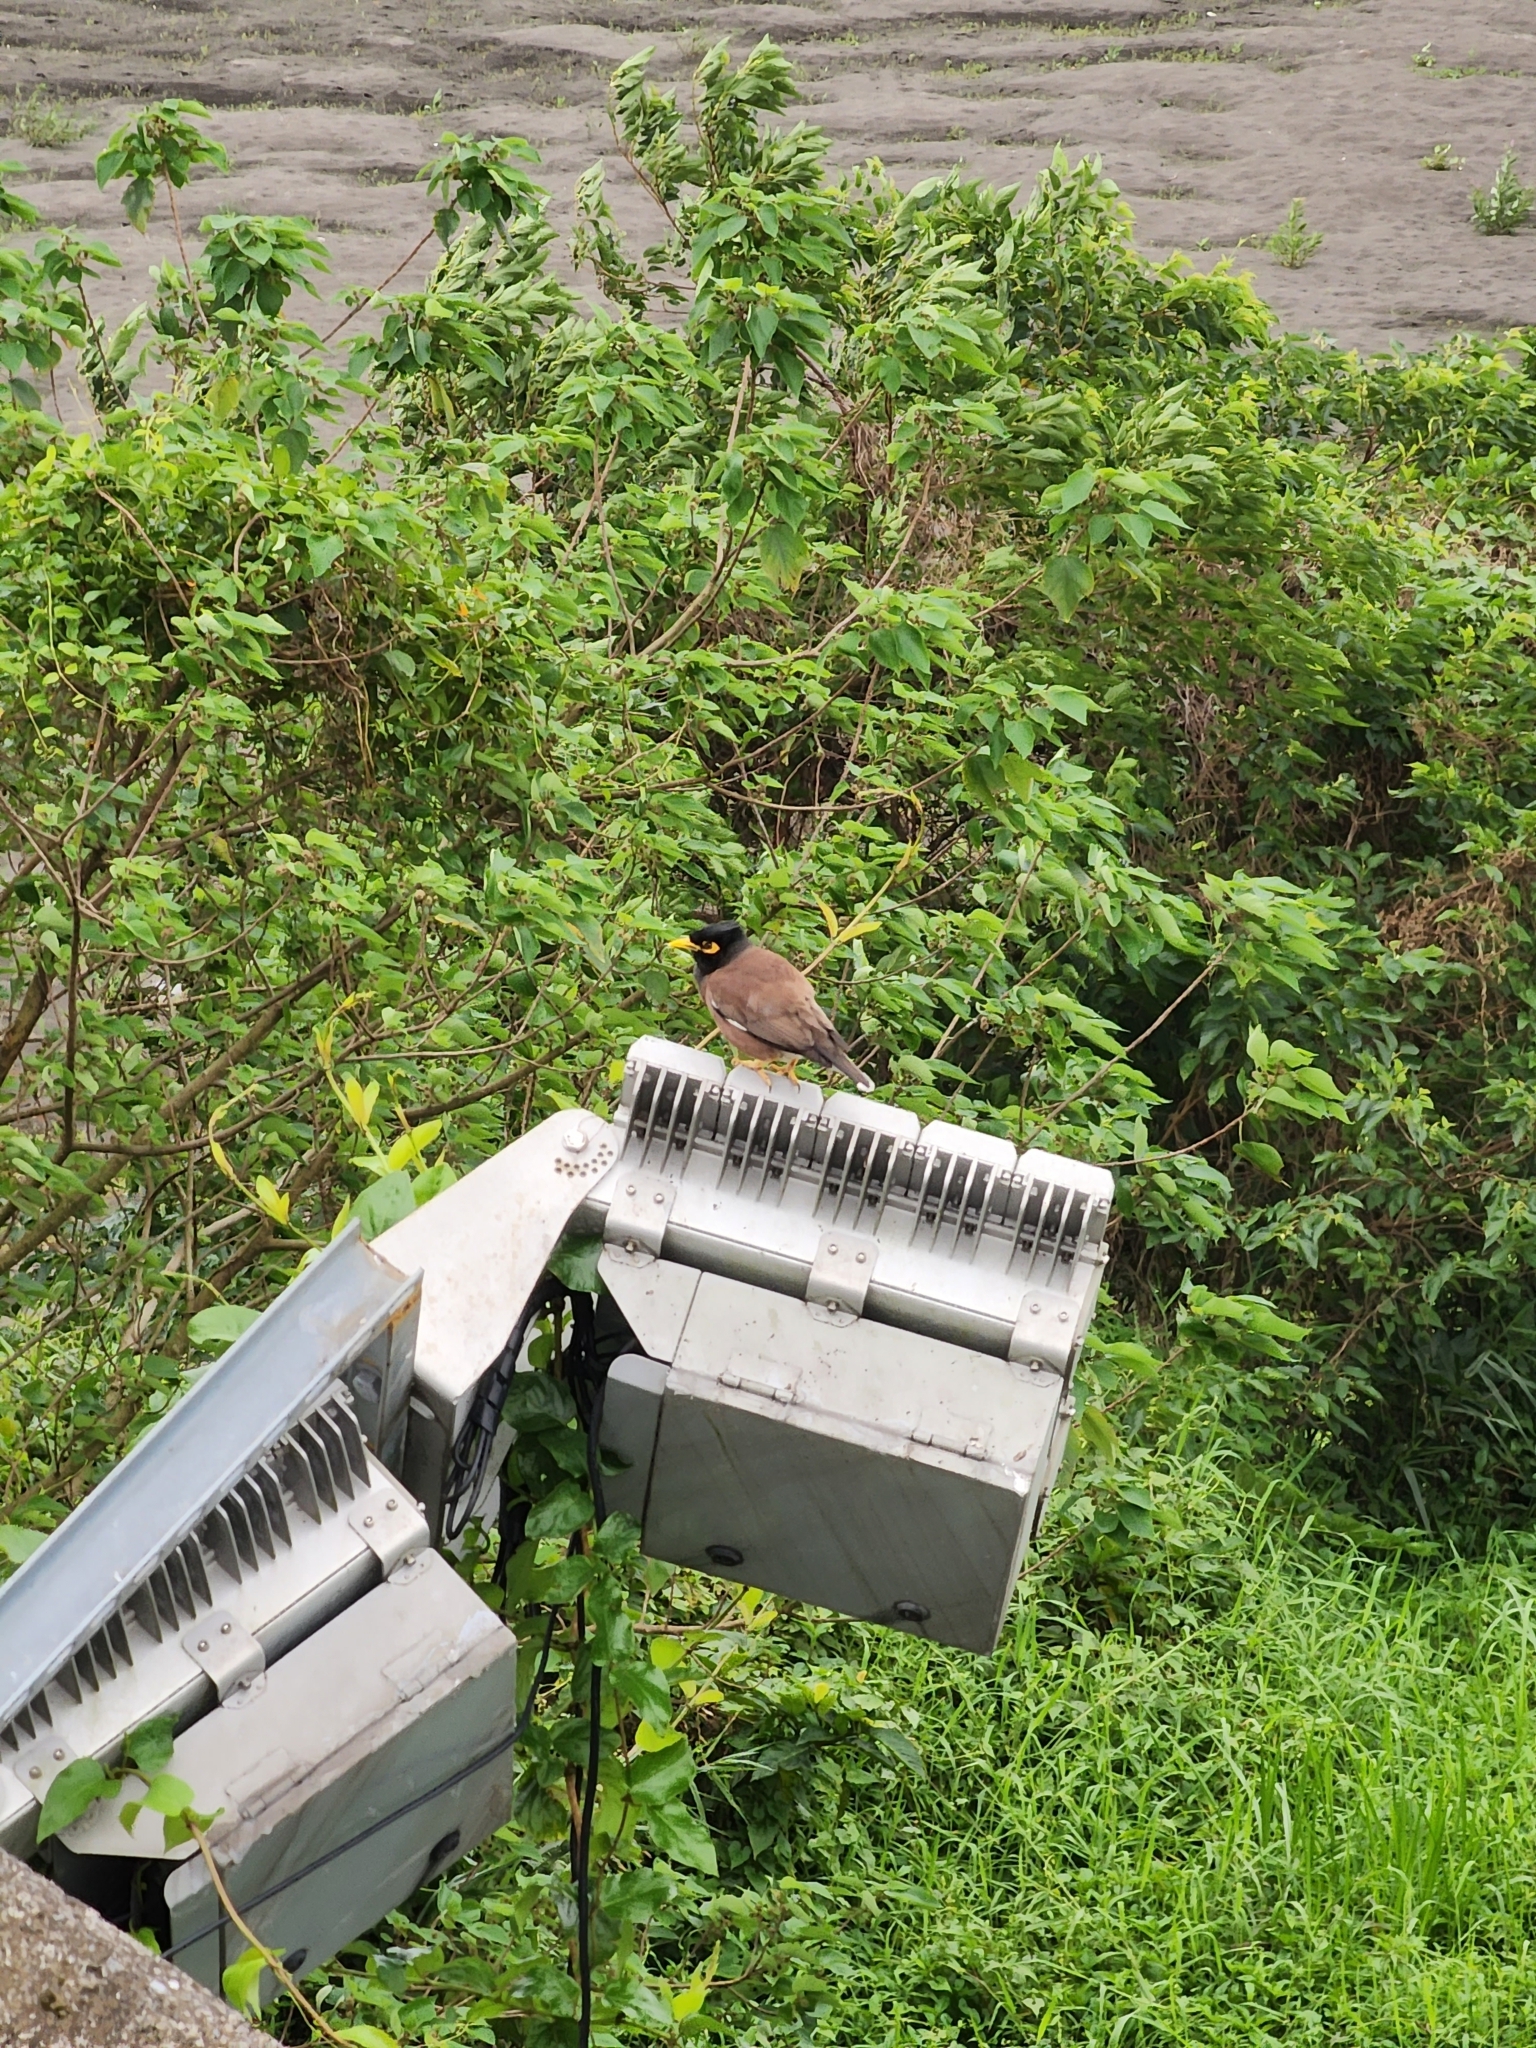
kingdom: Animalia
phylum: Chordata
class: Aves
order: Passeriformes
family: Sturnidae
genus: Acridotheres
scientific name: Acridotheres tristis
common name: Common myna
